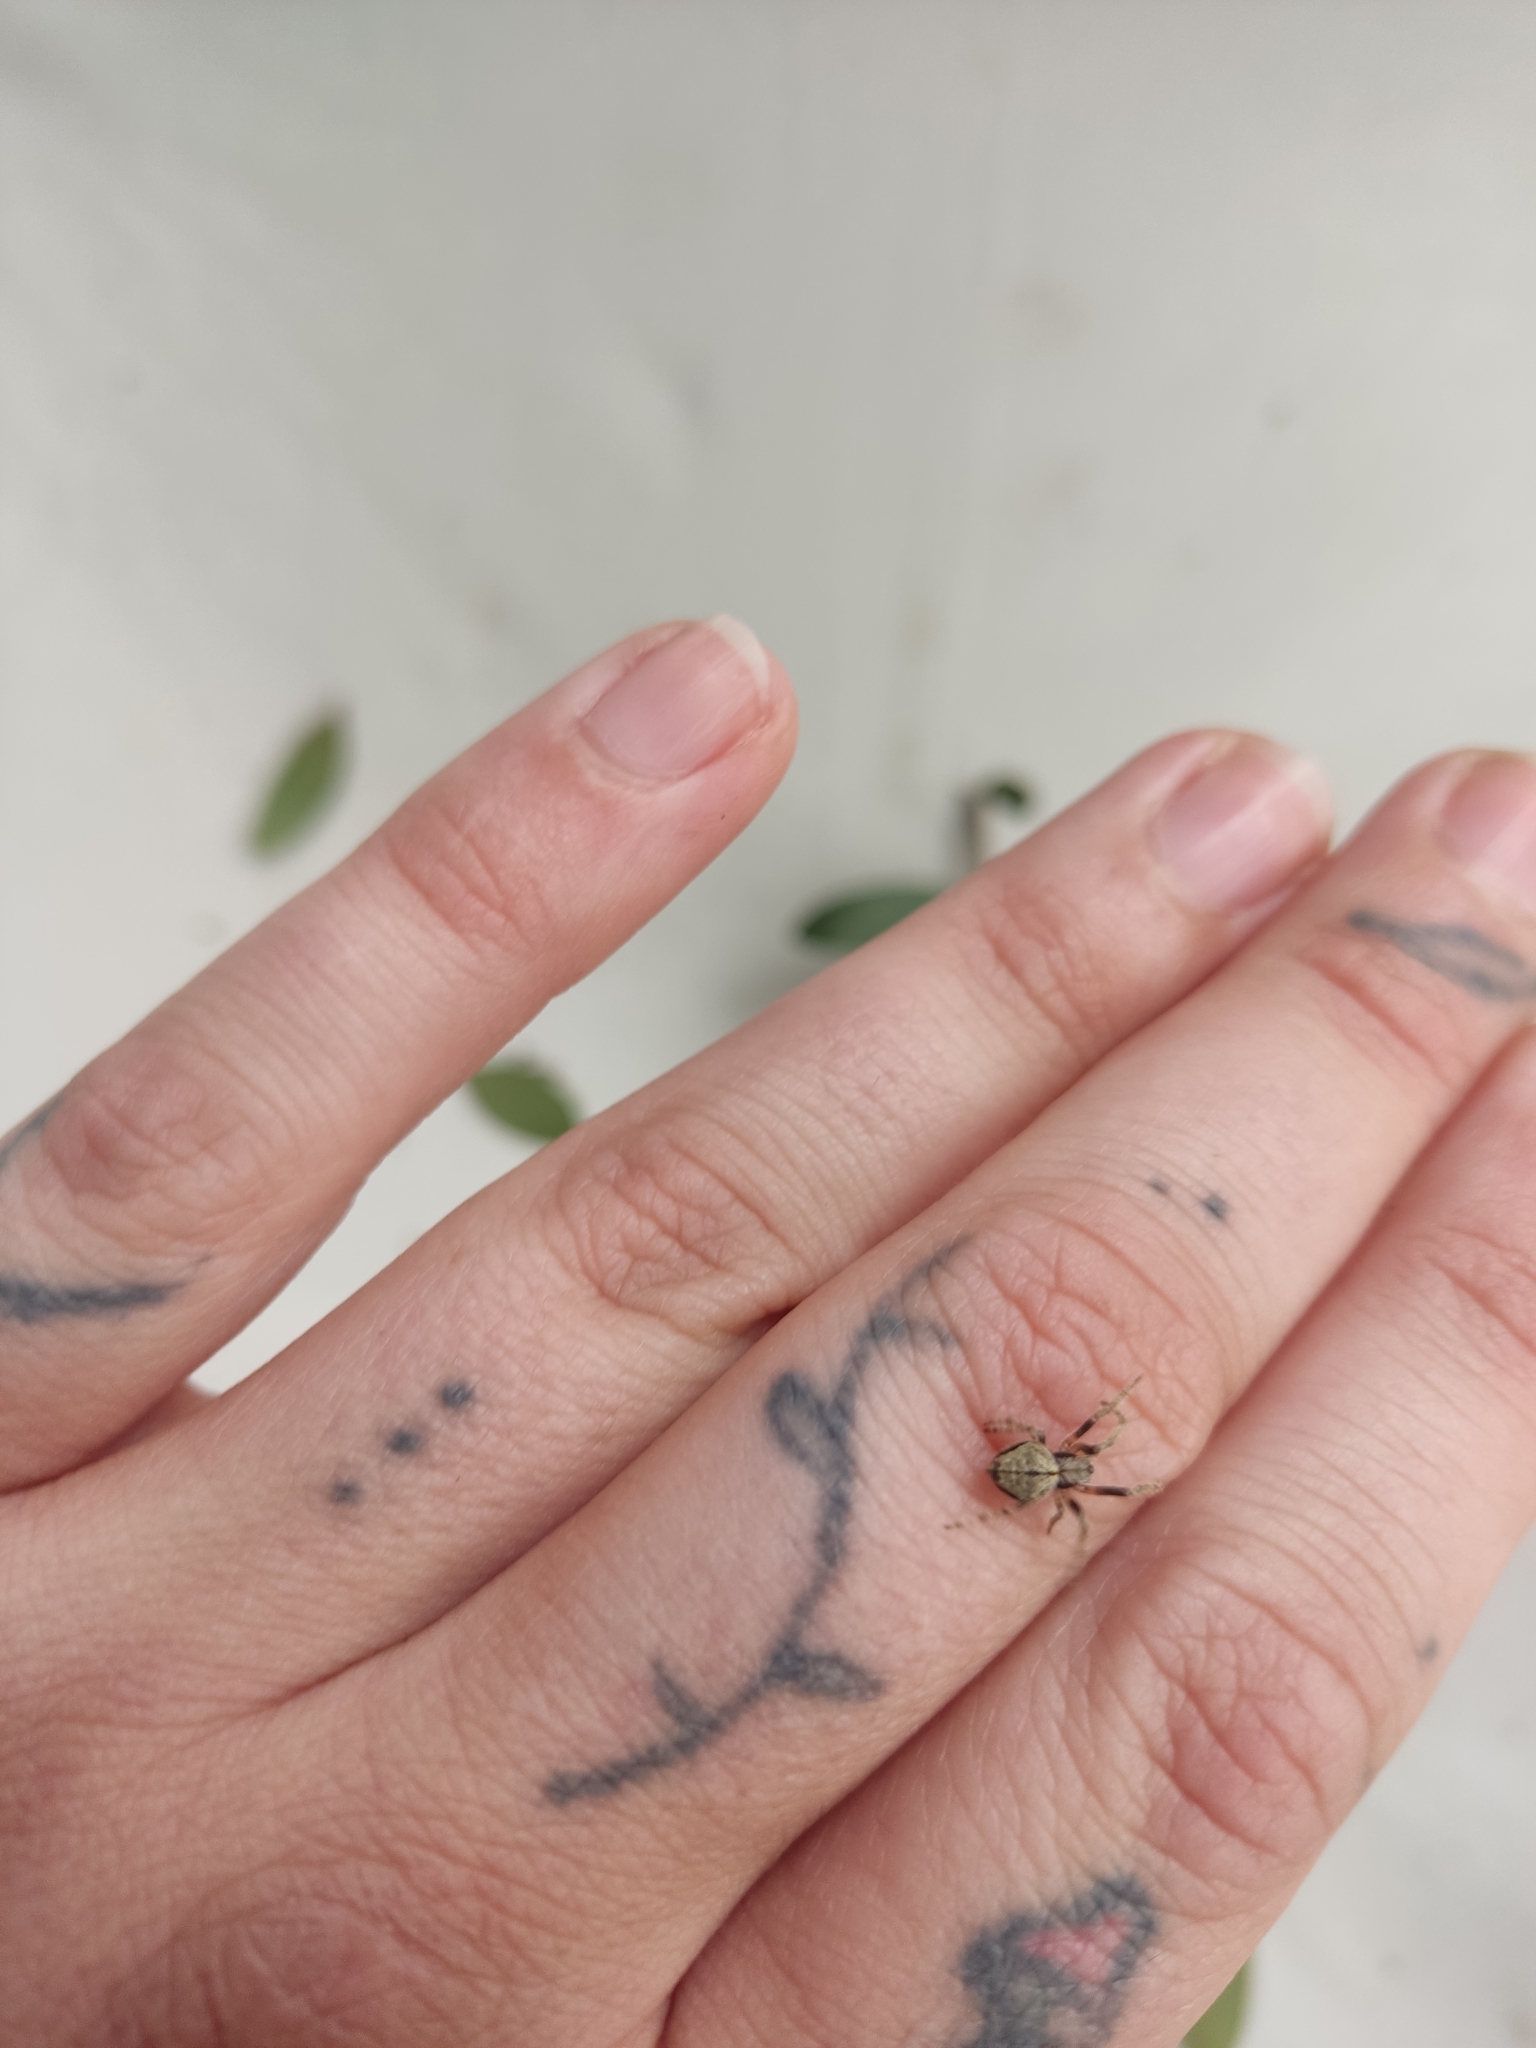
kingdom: Animalia
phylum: Arthropoda
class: Arachnida
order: Araneae
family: Araneidae
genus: Eriophora
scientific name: Eriophora pustulosa
